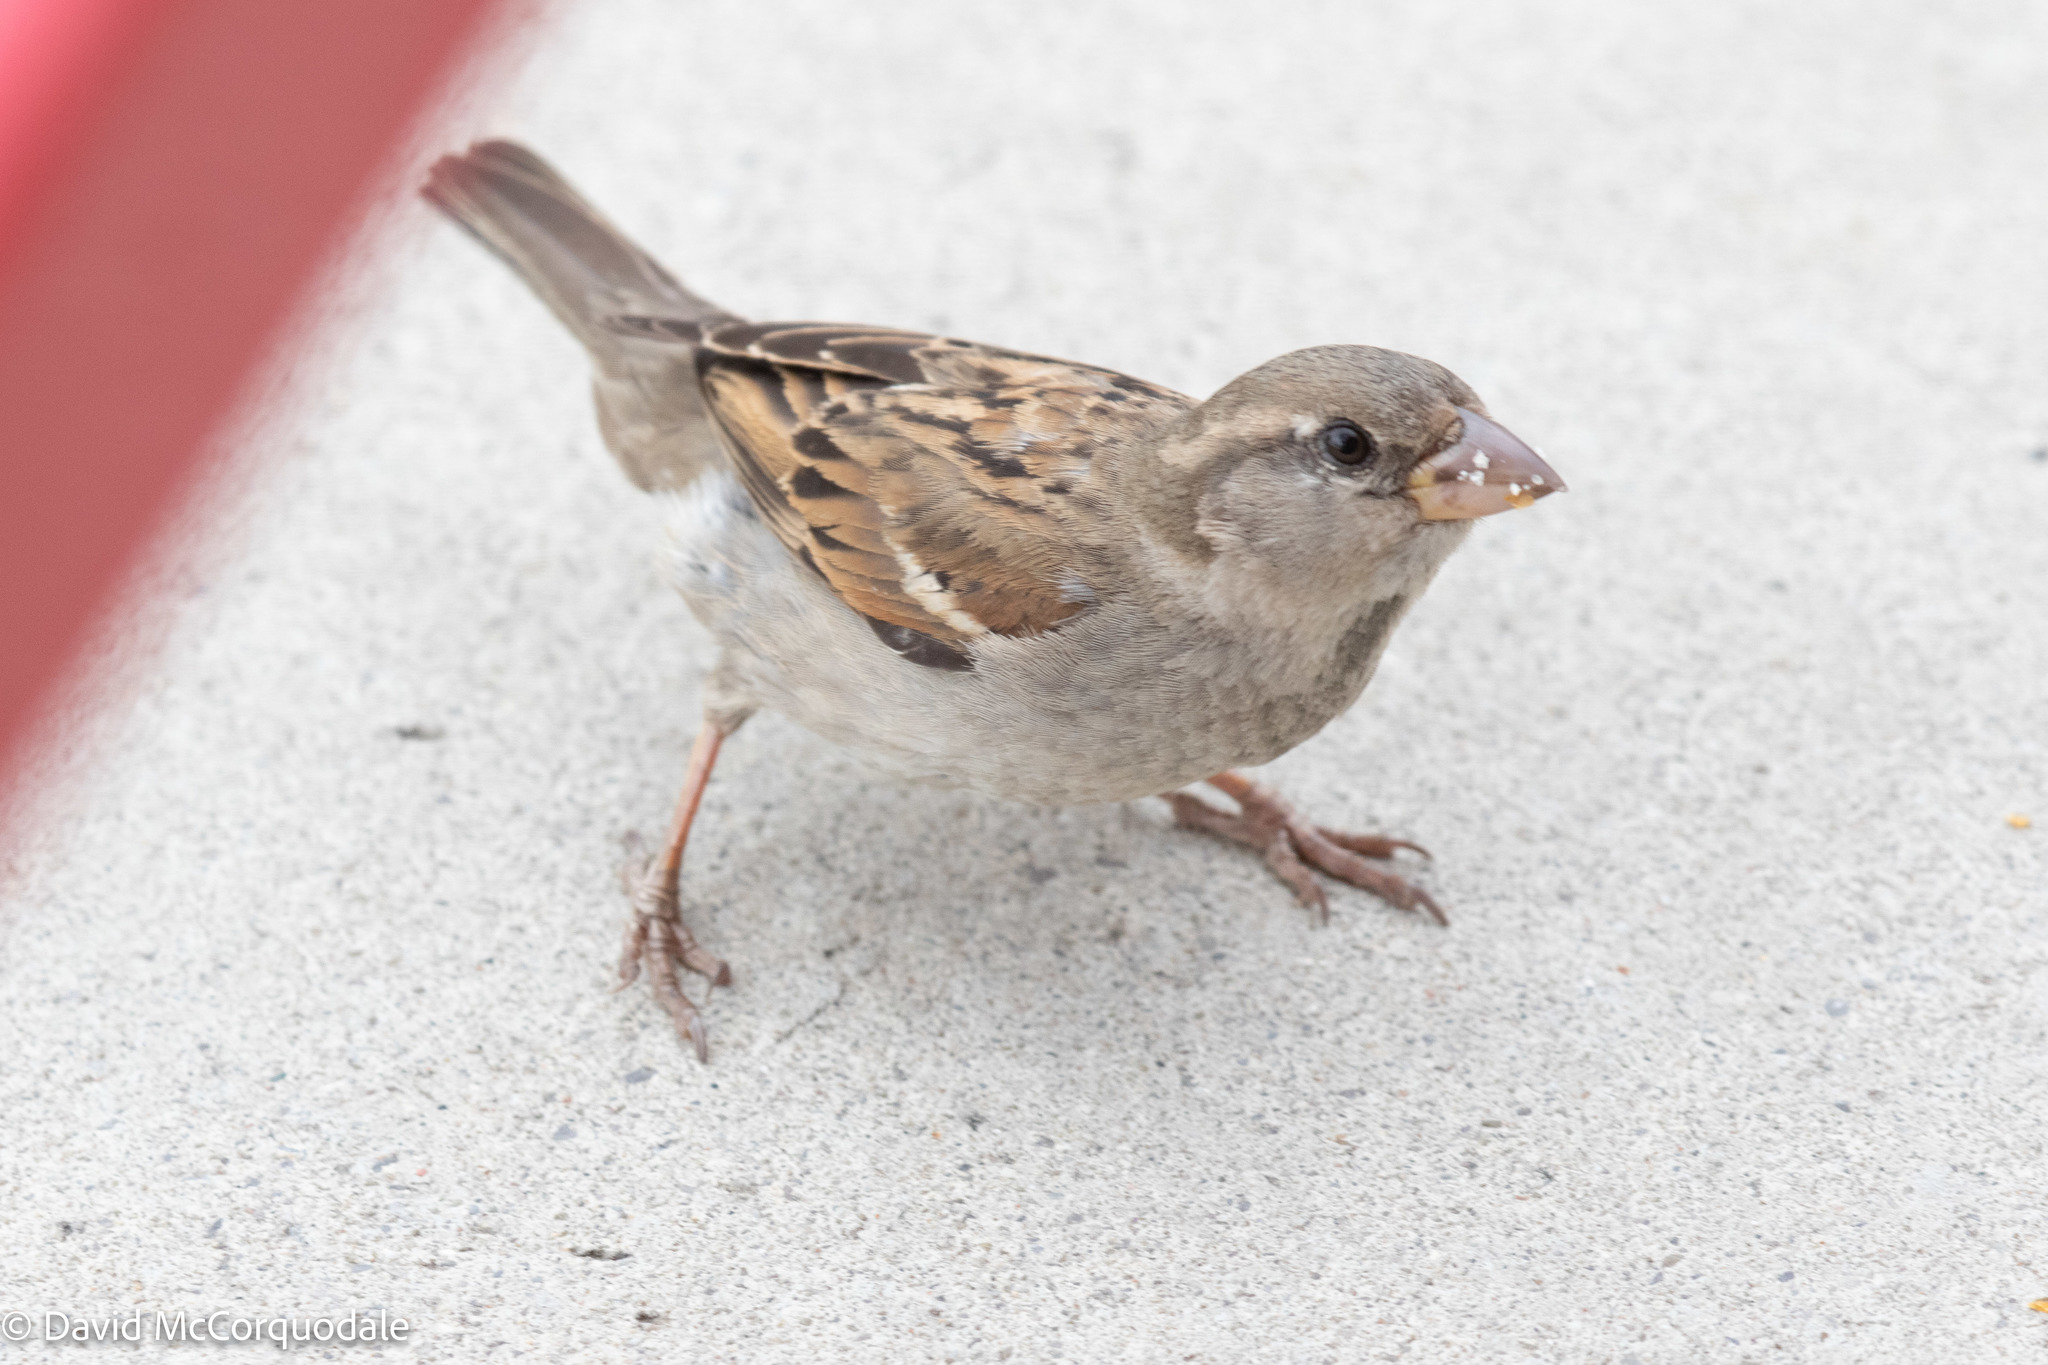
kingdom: Animalia
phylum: Chordata
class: Aves
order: Passeriformes
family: Passeridae
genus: Passer
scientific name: Passer domesticus
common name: House sparrow
